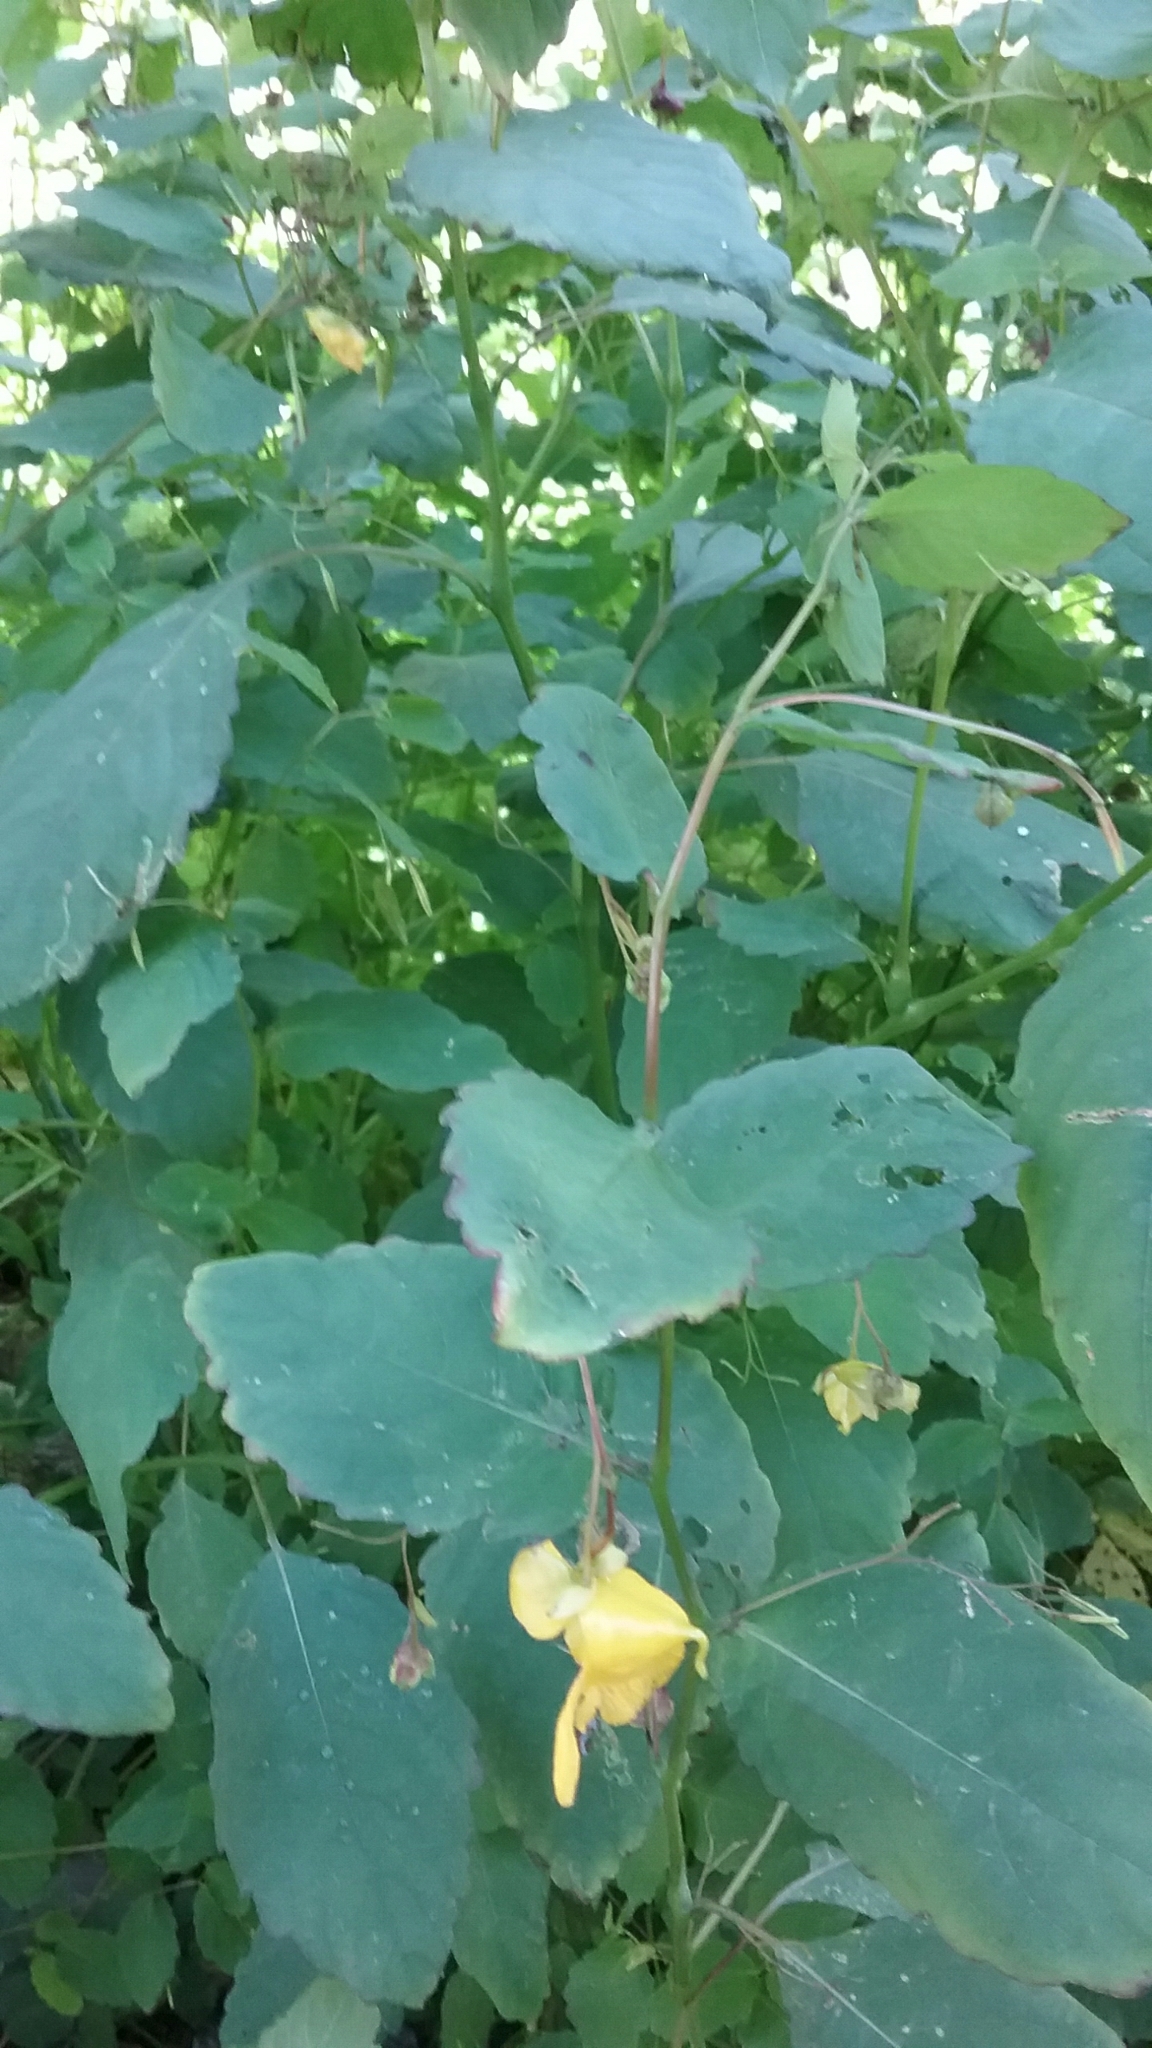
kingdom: Plantae
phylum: Tracheophyta
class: Magnoliopsida
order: Ericales
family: Balsaminaceae
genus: Impatiens
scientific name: Impatiens pallida
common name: Pale snapweed
